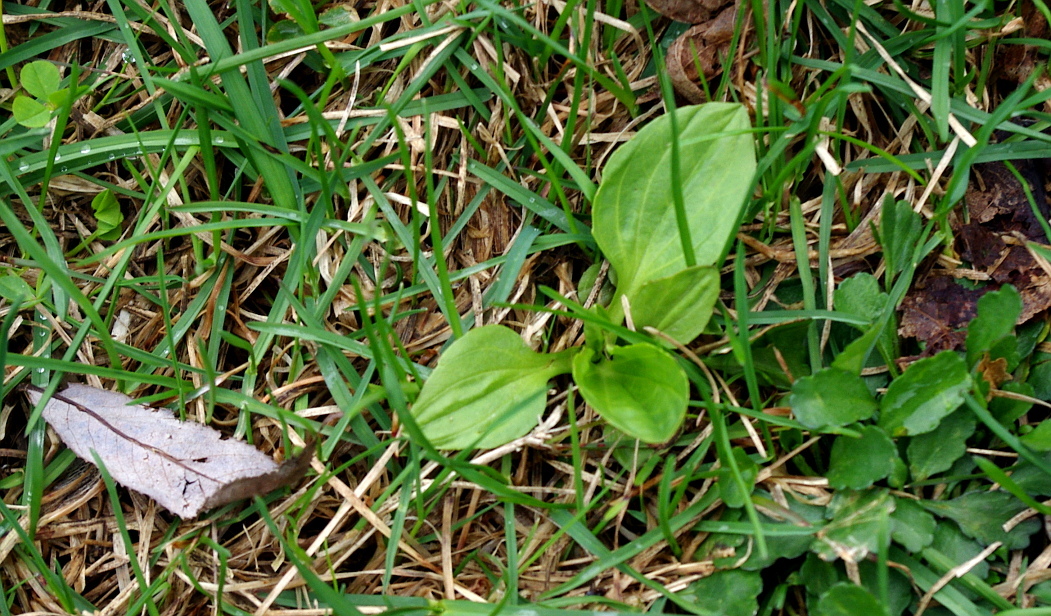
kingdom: Plantae
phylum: Tracheophyta
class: Magnoliopsida
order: Lamiales
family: Plantaginaceae
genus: Plantago
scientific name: Plantago major
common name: Common plantain
